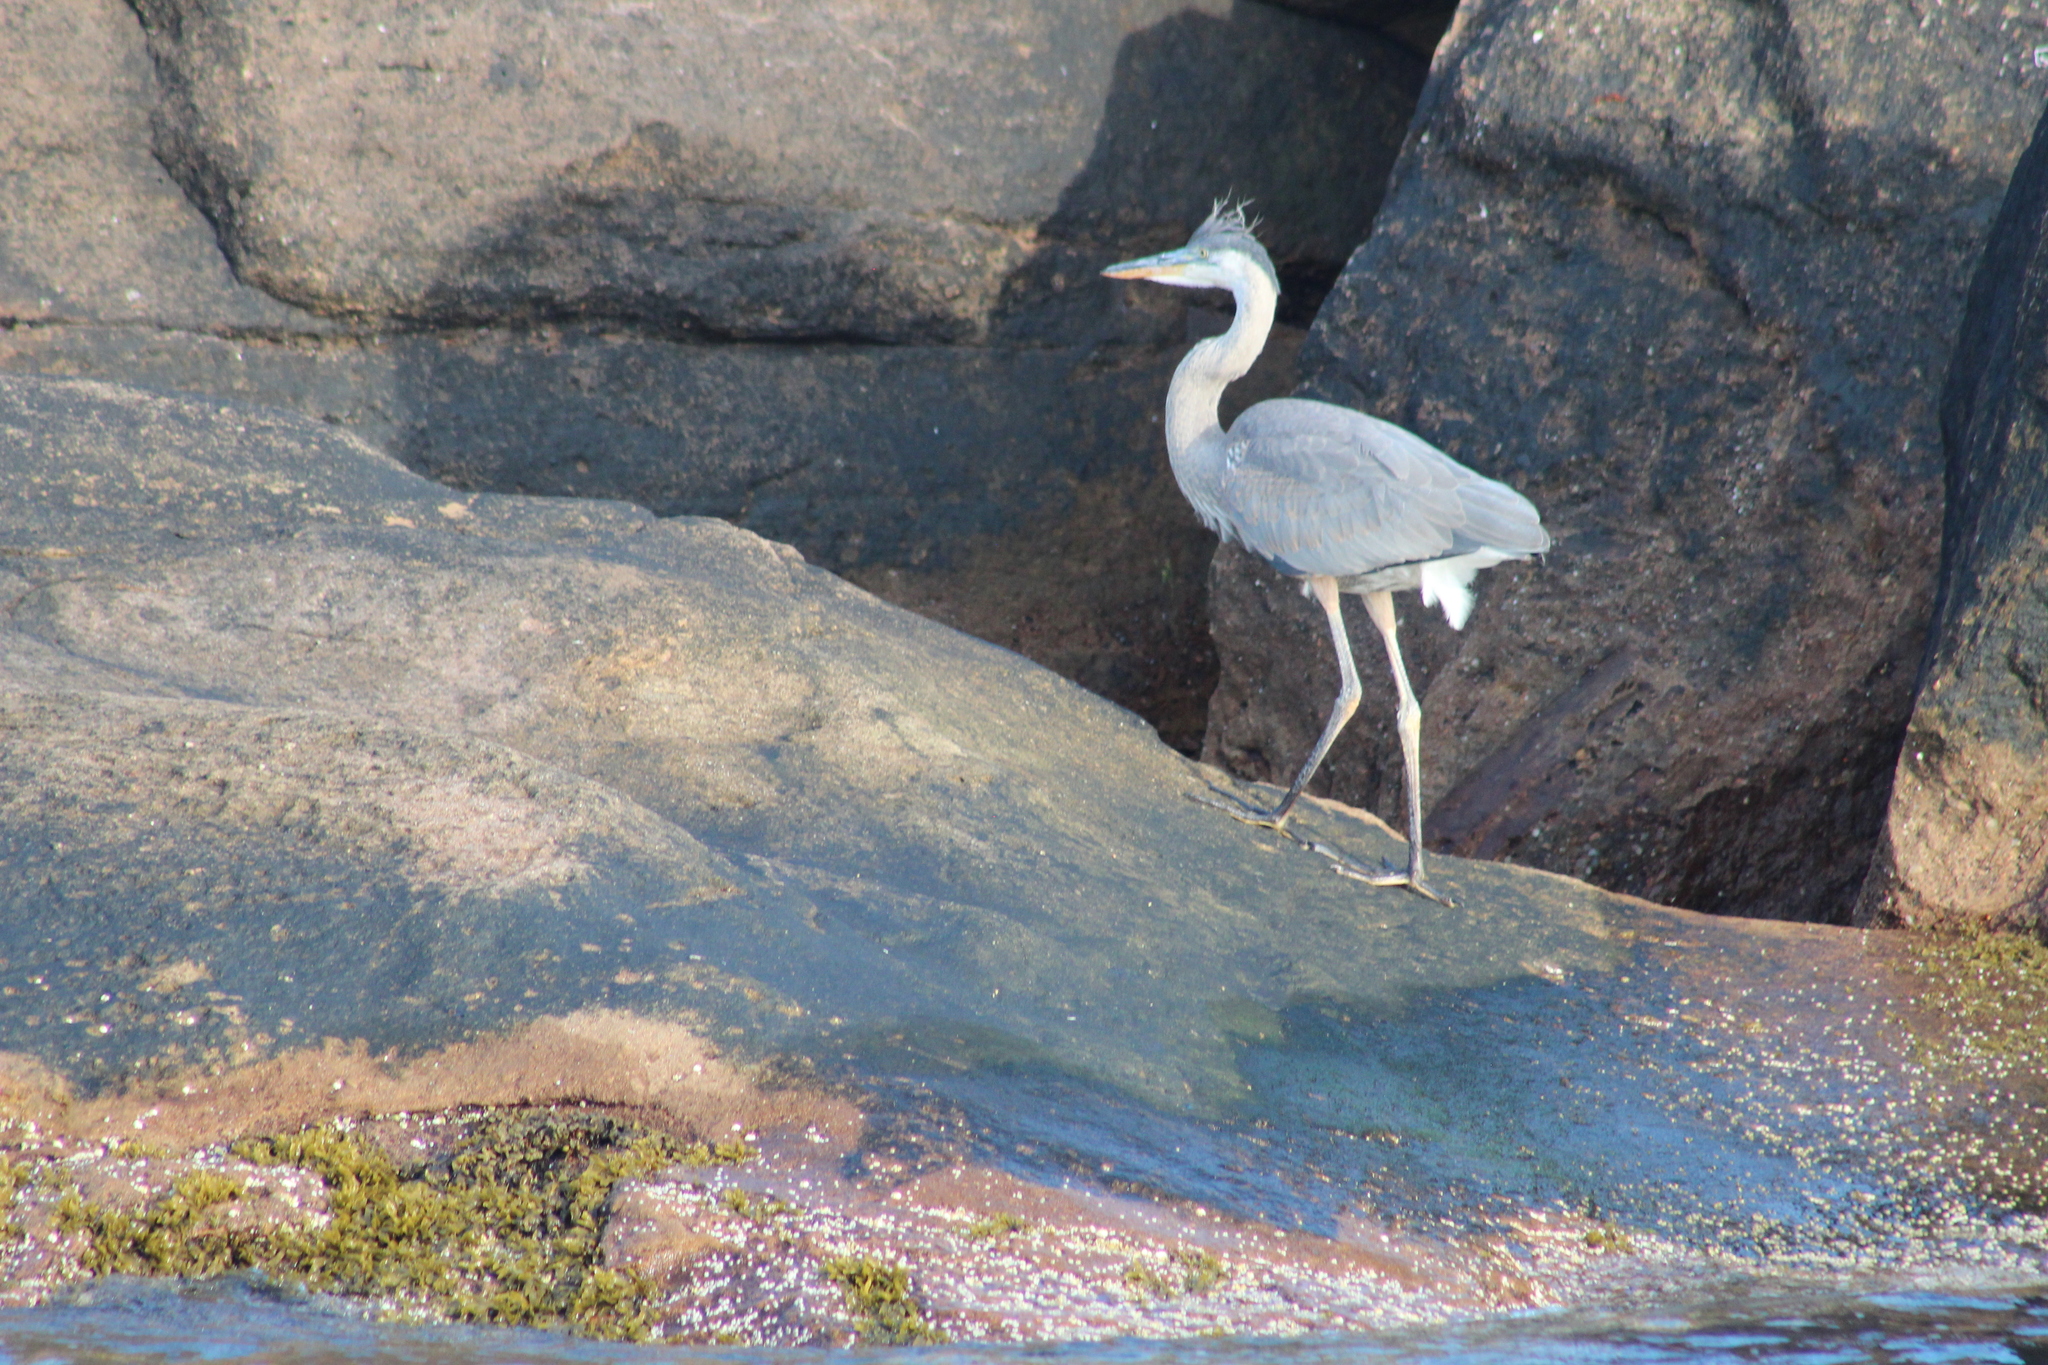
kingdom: Animalia
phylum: Chordata
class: Aves
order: Pelecaniformes
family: Ardeidae
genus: Ardea
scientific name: Ardea herodias
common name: Great blue heron
